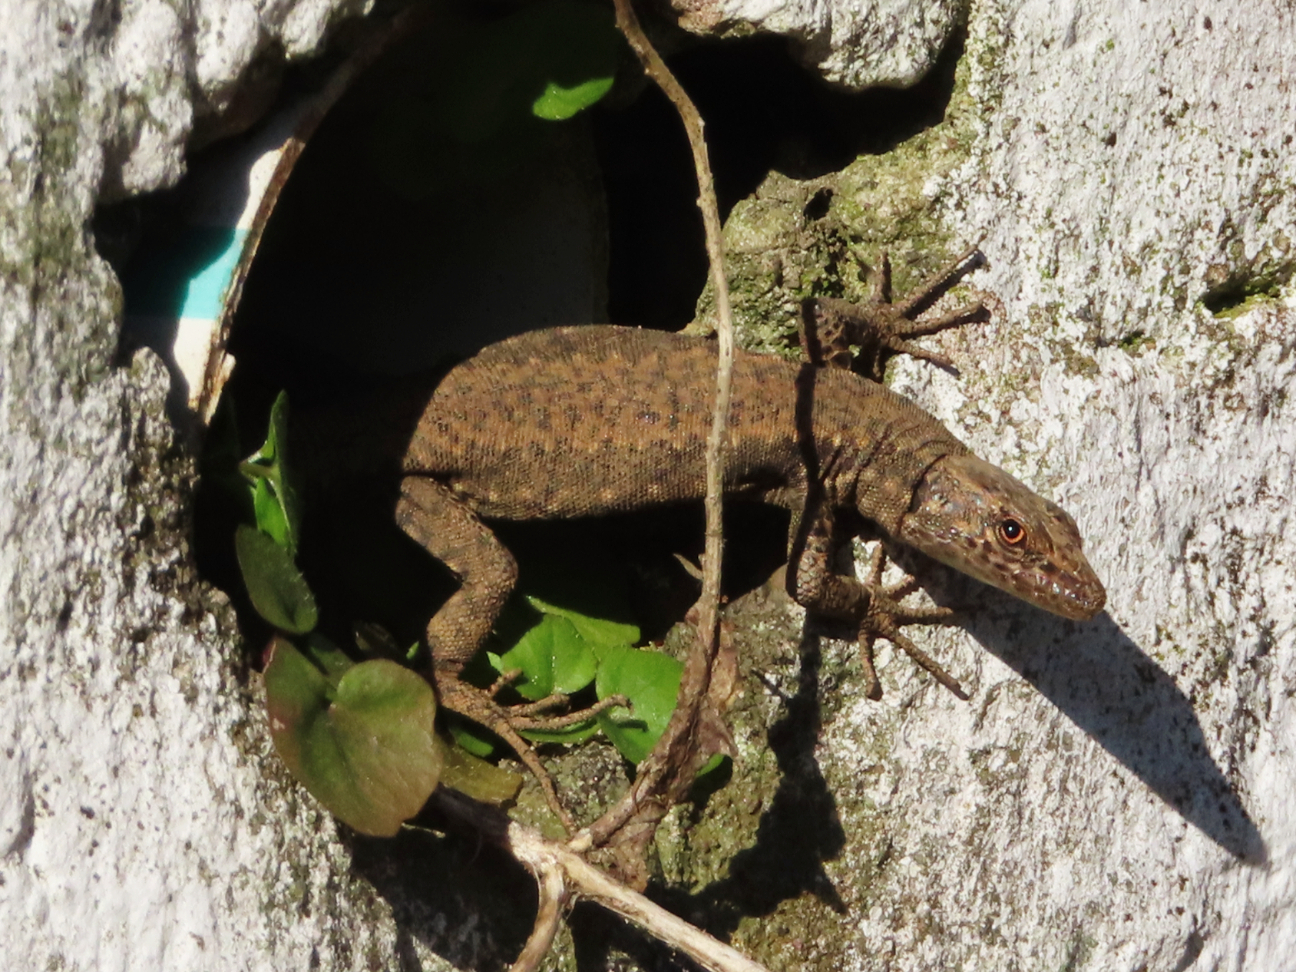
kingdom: Animalia
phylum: Chordata
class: Squamata
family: Lacertidae
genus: Darevskia
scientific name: Darevskia rudis
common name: Spiny-tailed lizard
